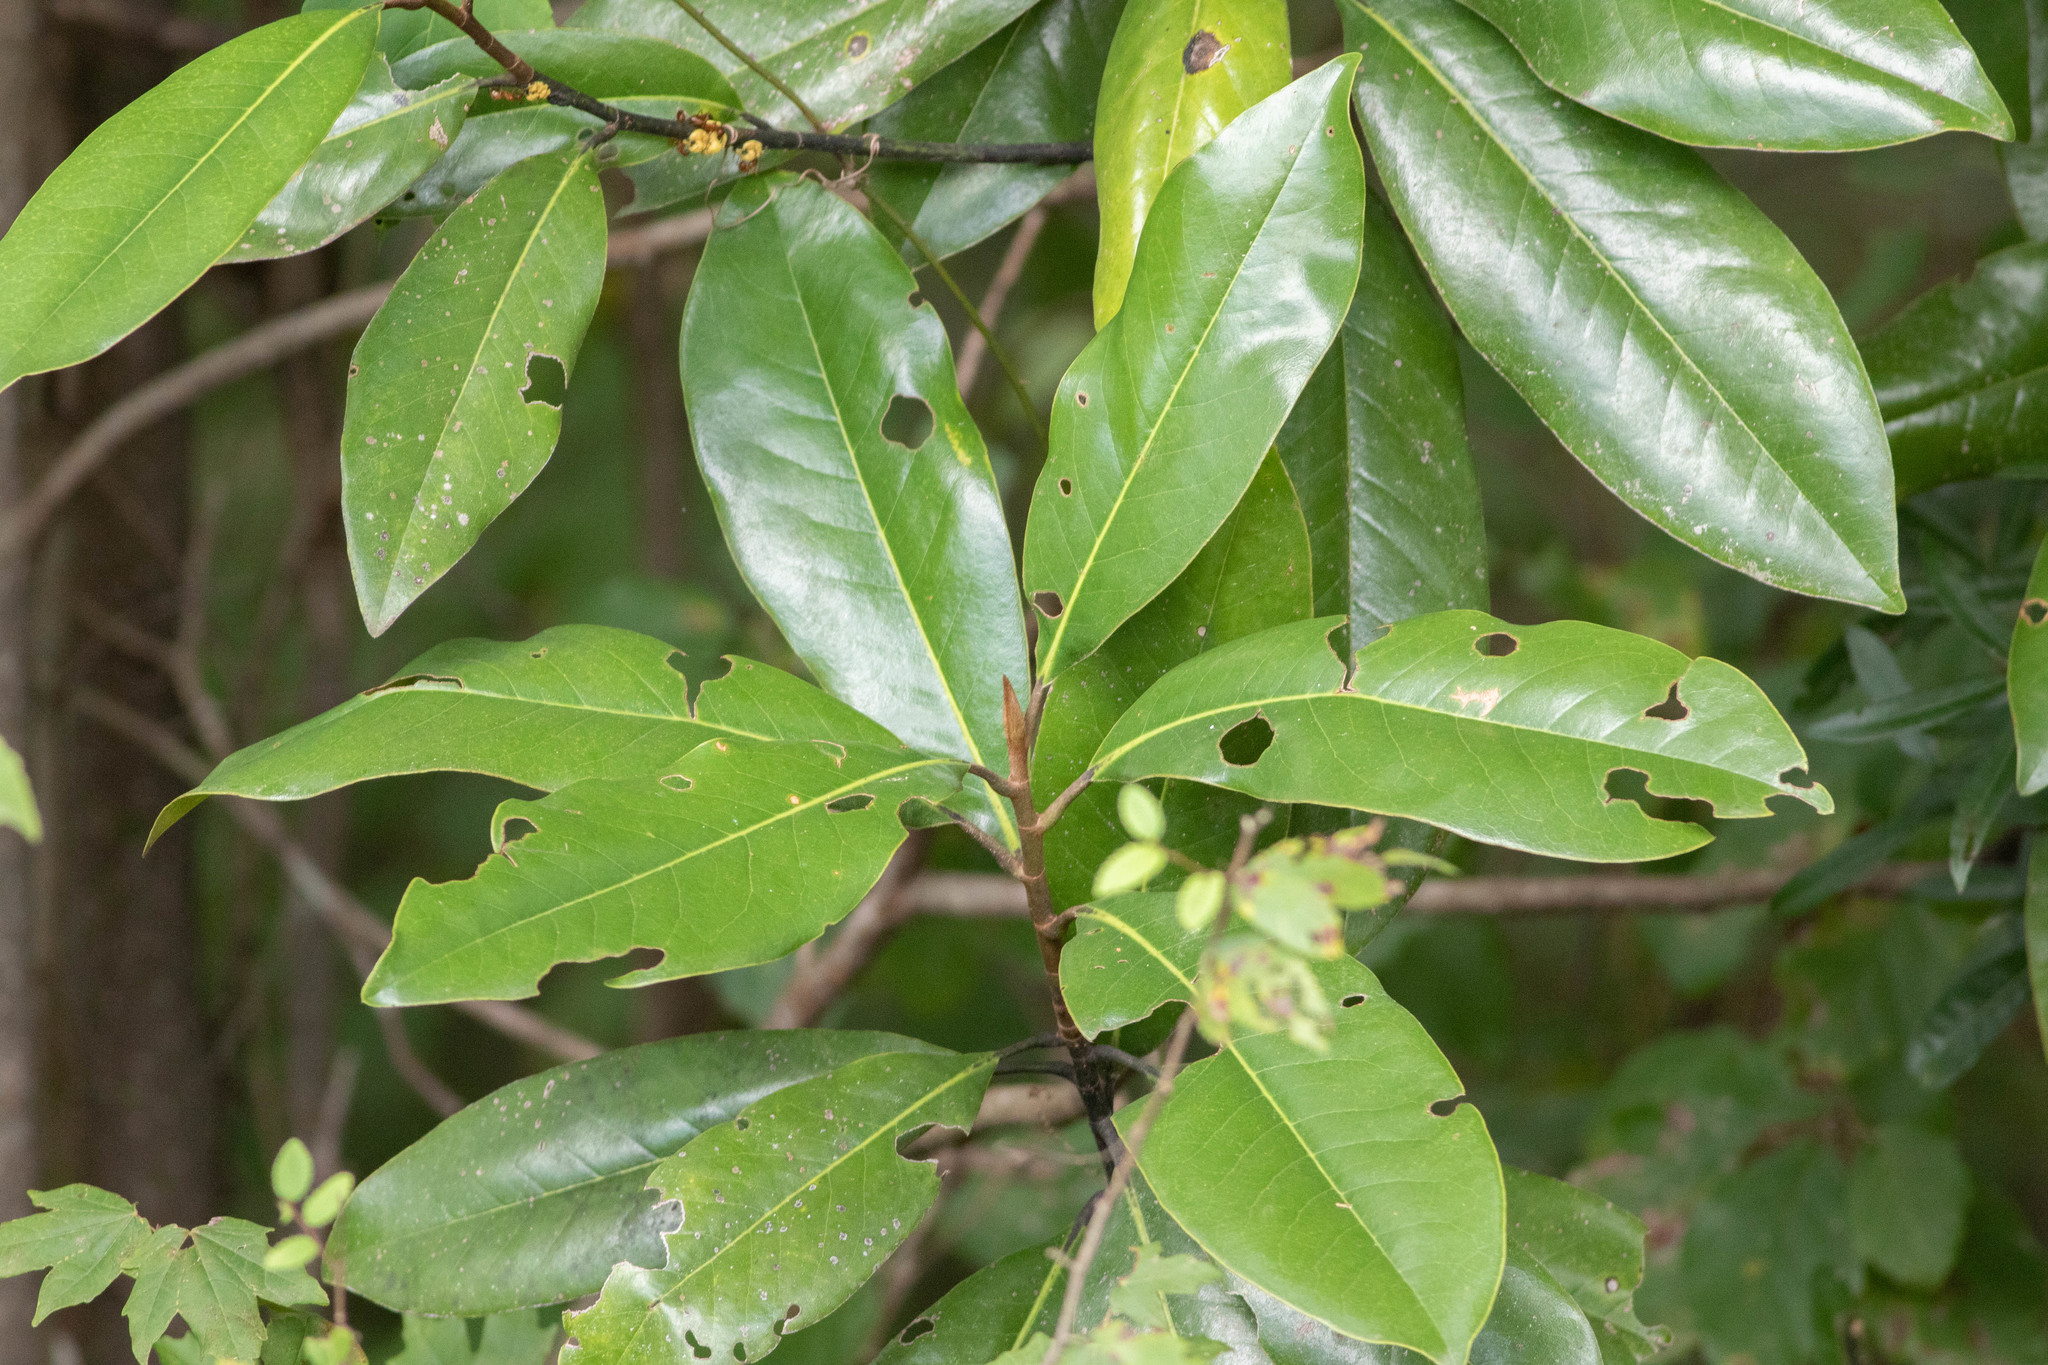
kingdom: Plantae
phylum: Tracheophyta
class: Magnoliopsida
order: Magnoliales
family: Magnoliaceae
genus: Magnolia
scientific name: Magnolia grandiflora
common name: Southern magnolia
